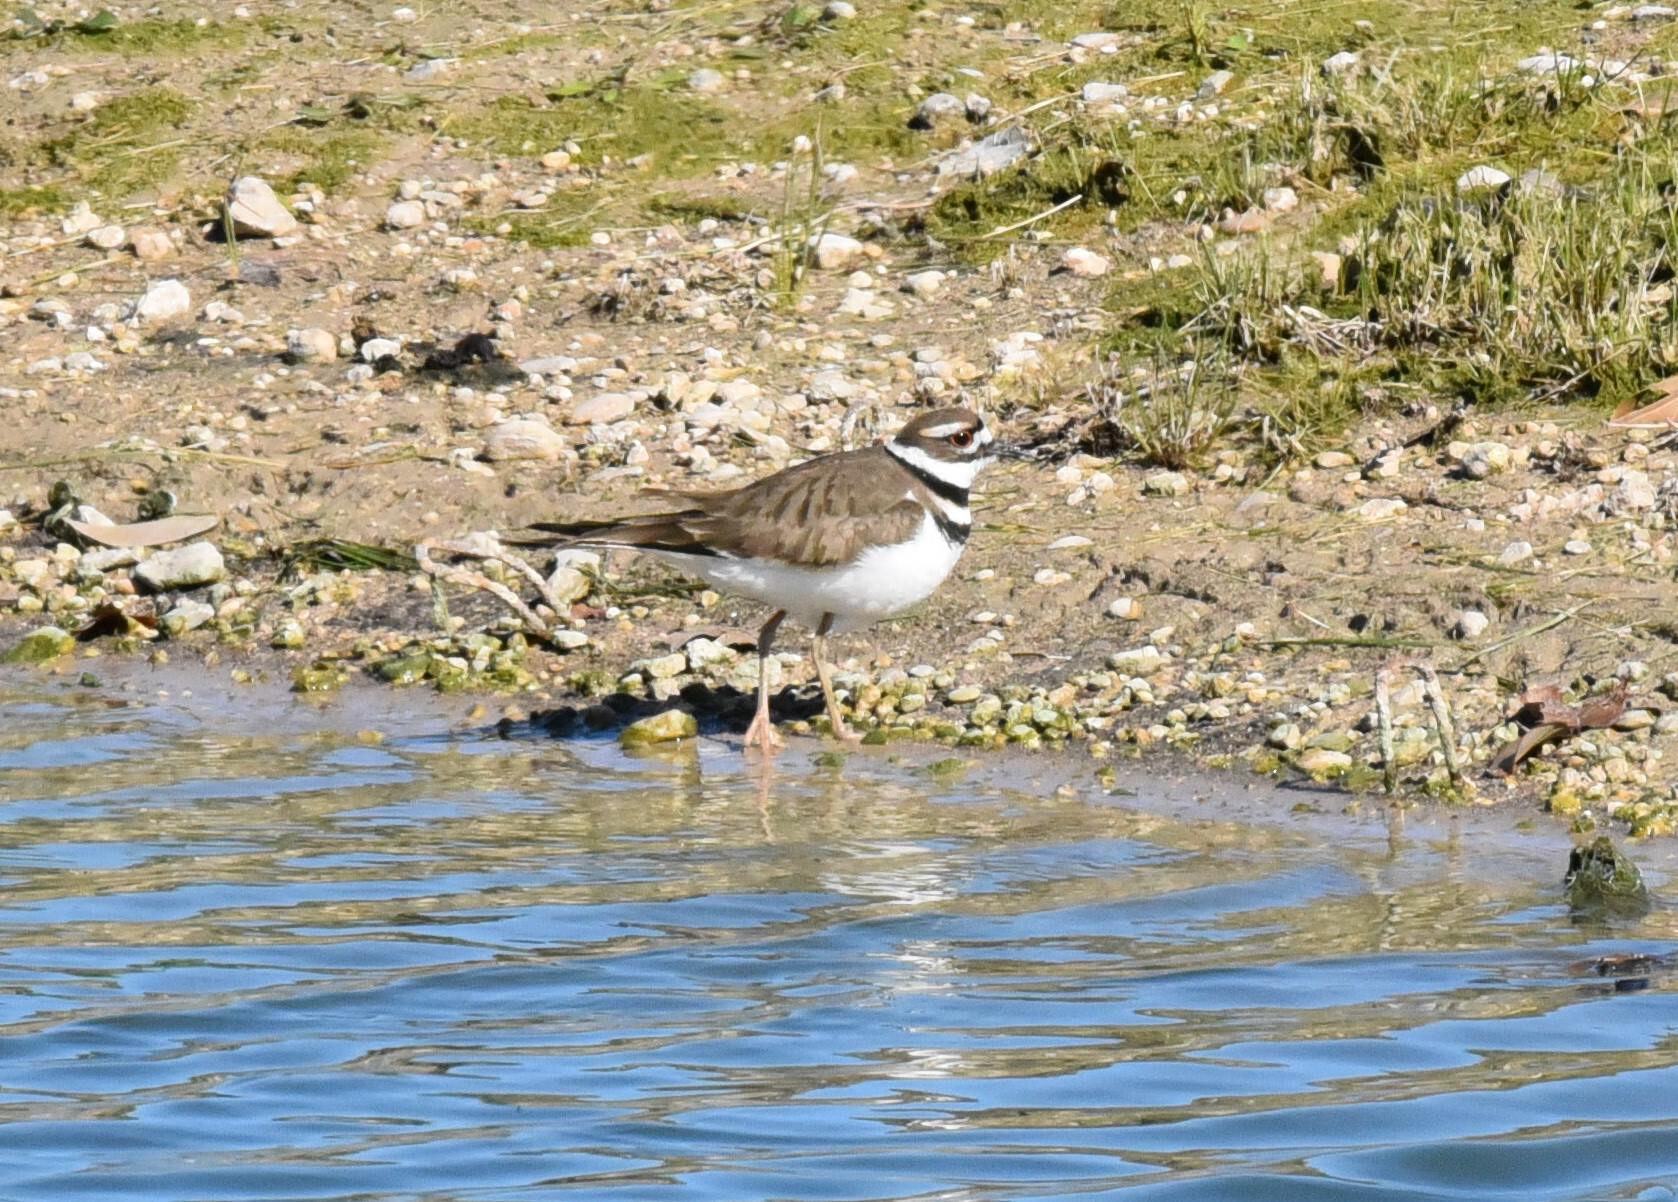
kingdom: Animalia
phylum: Chordata
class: Aves
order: Charadriiformes
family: Charadriidae
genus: Charadrius
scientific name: Charadrius vociferus
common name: Killdeer
